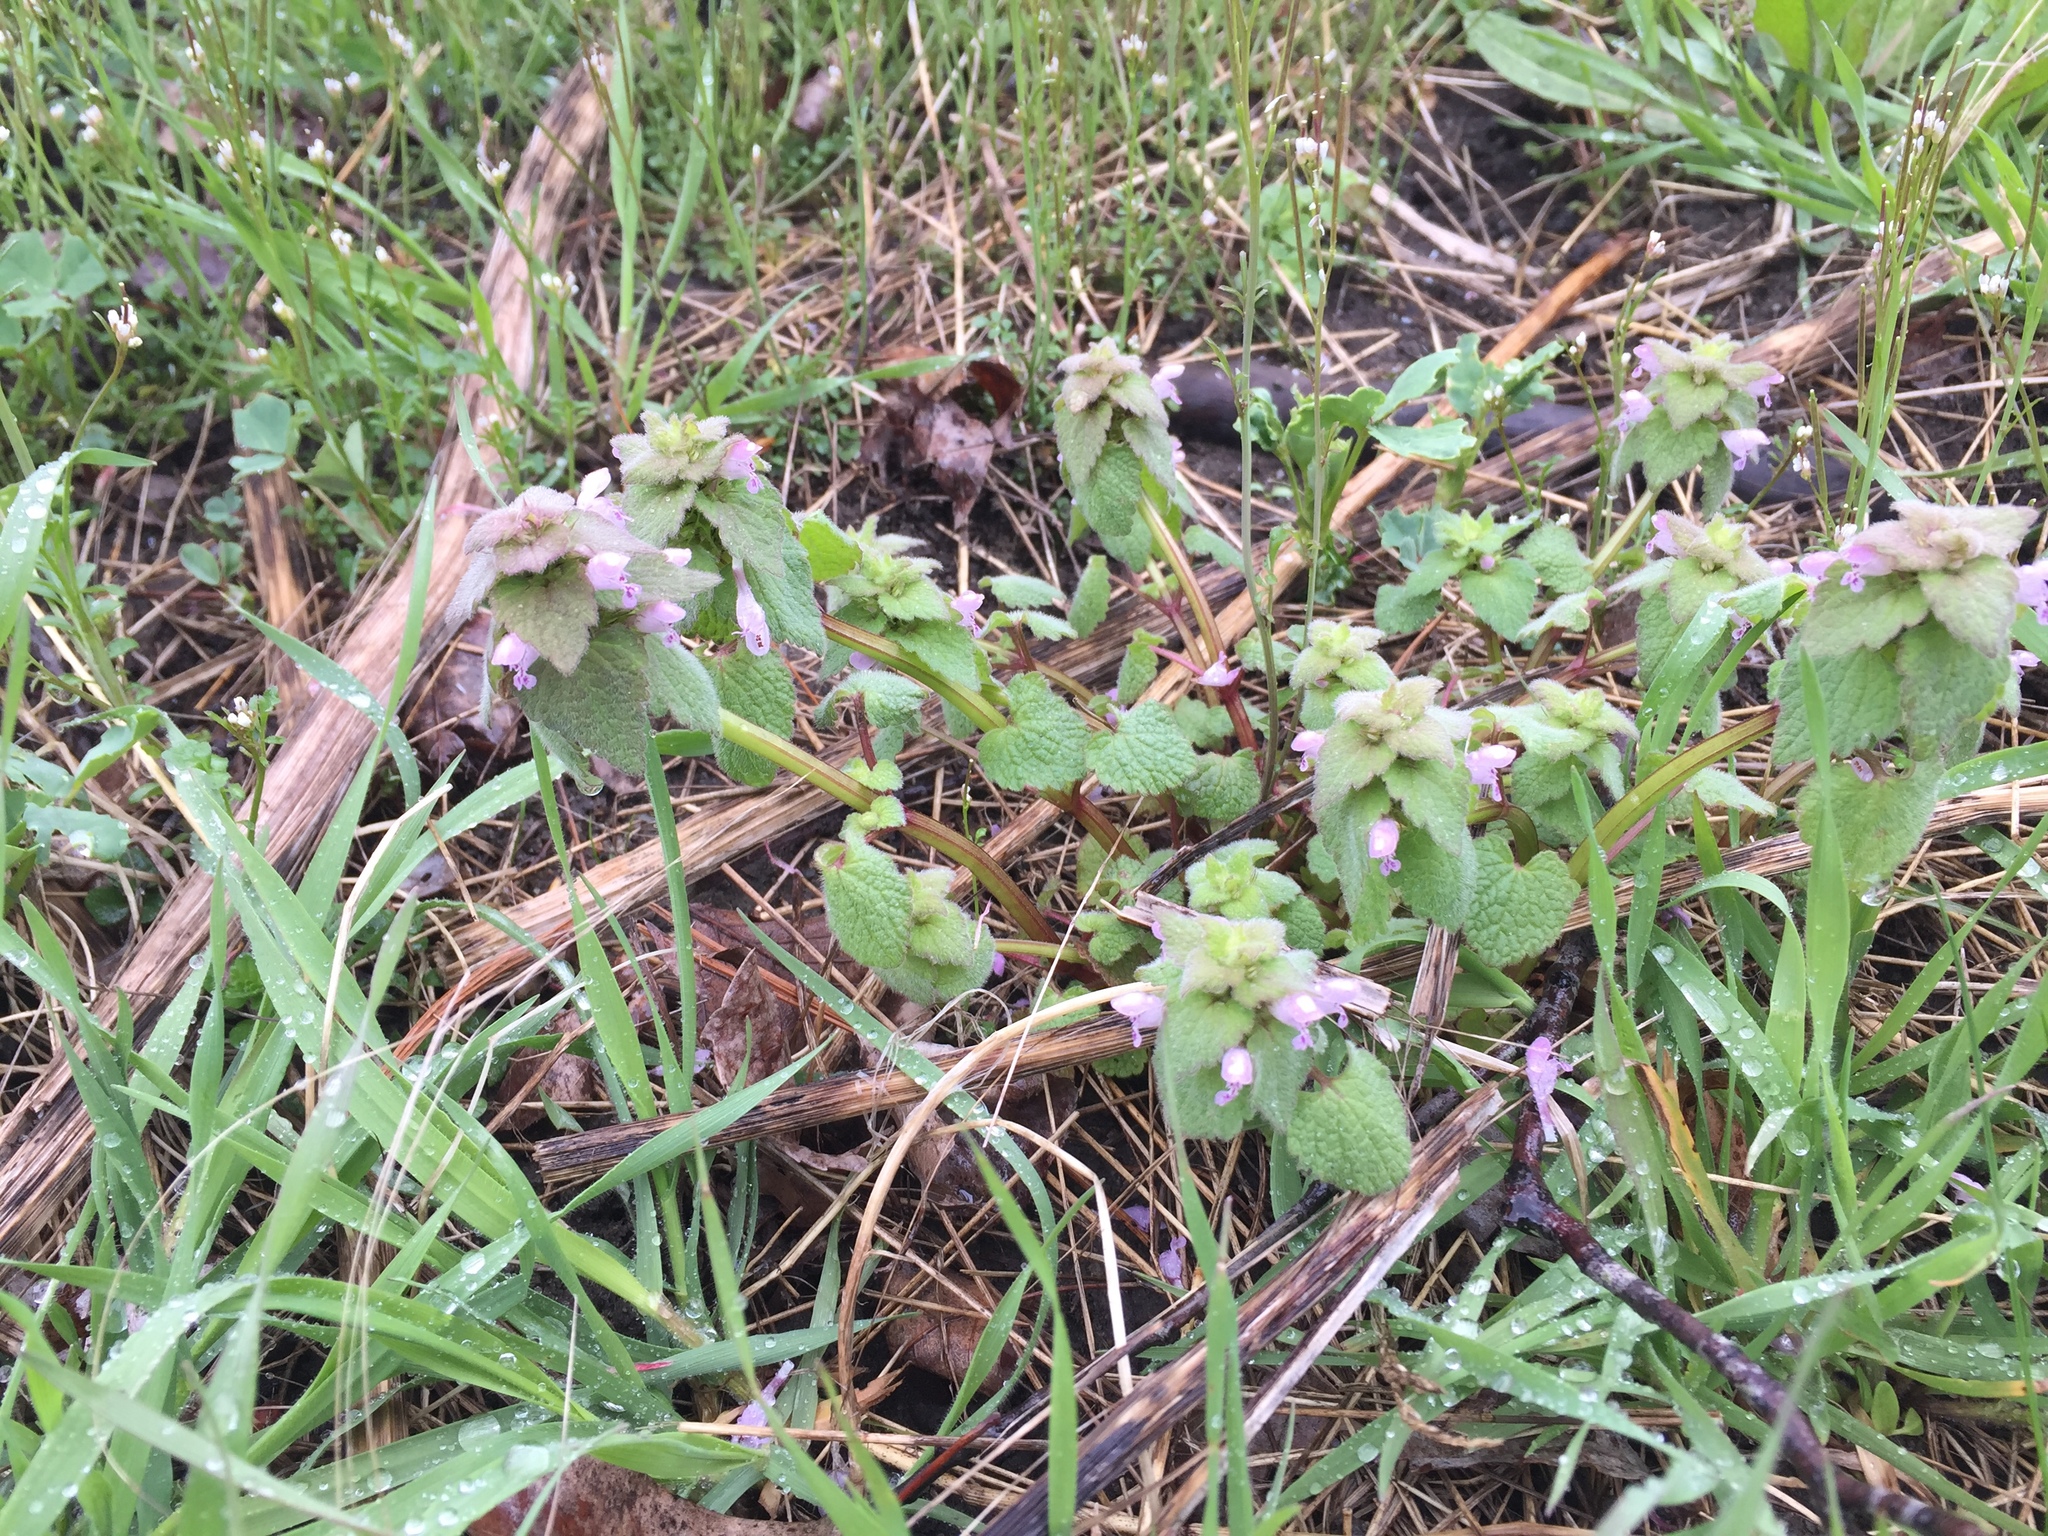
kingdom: Plantae
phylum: Tracheophyta
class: Magnoliopsida
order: Lamiales
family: Lamiaceae
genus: Lamium
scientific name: Lamium purpureum
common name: Red dead-nettle
